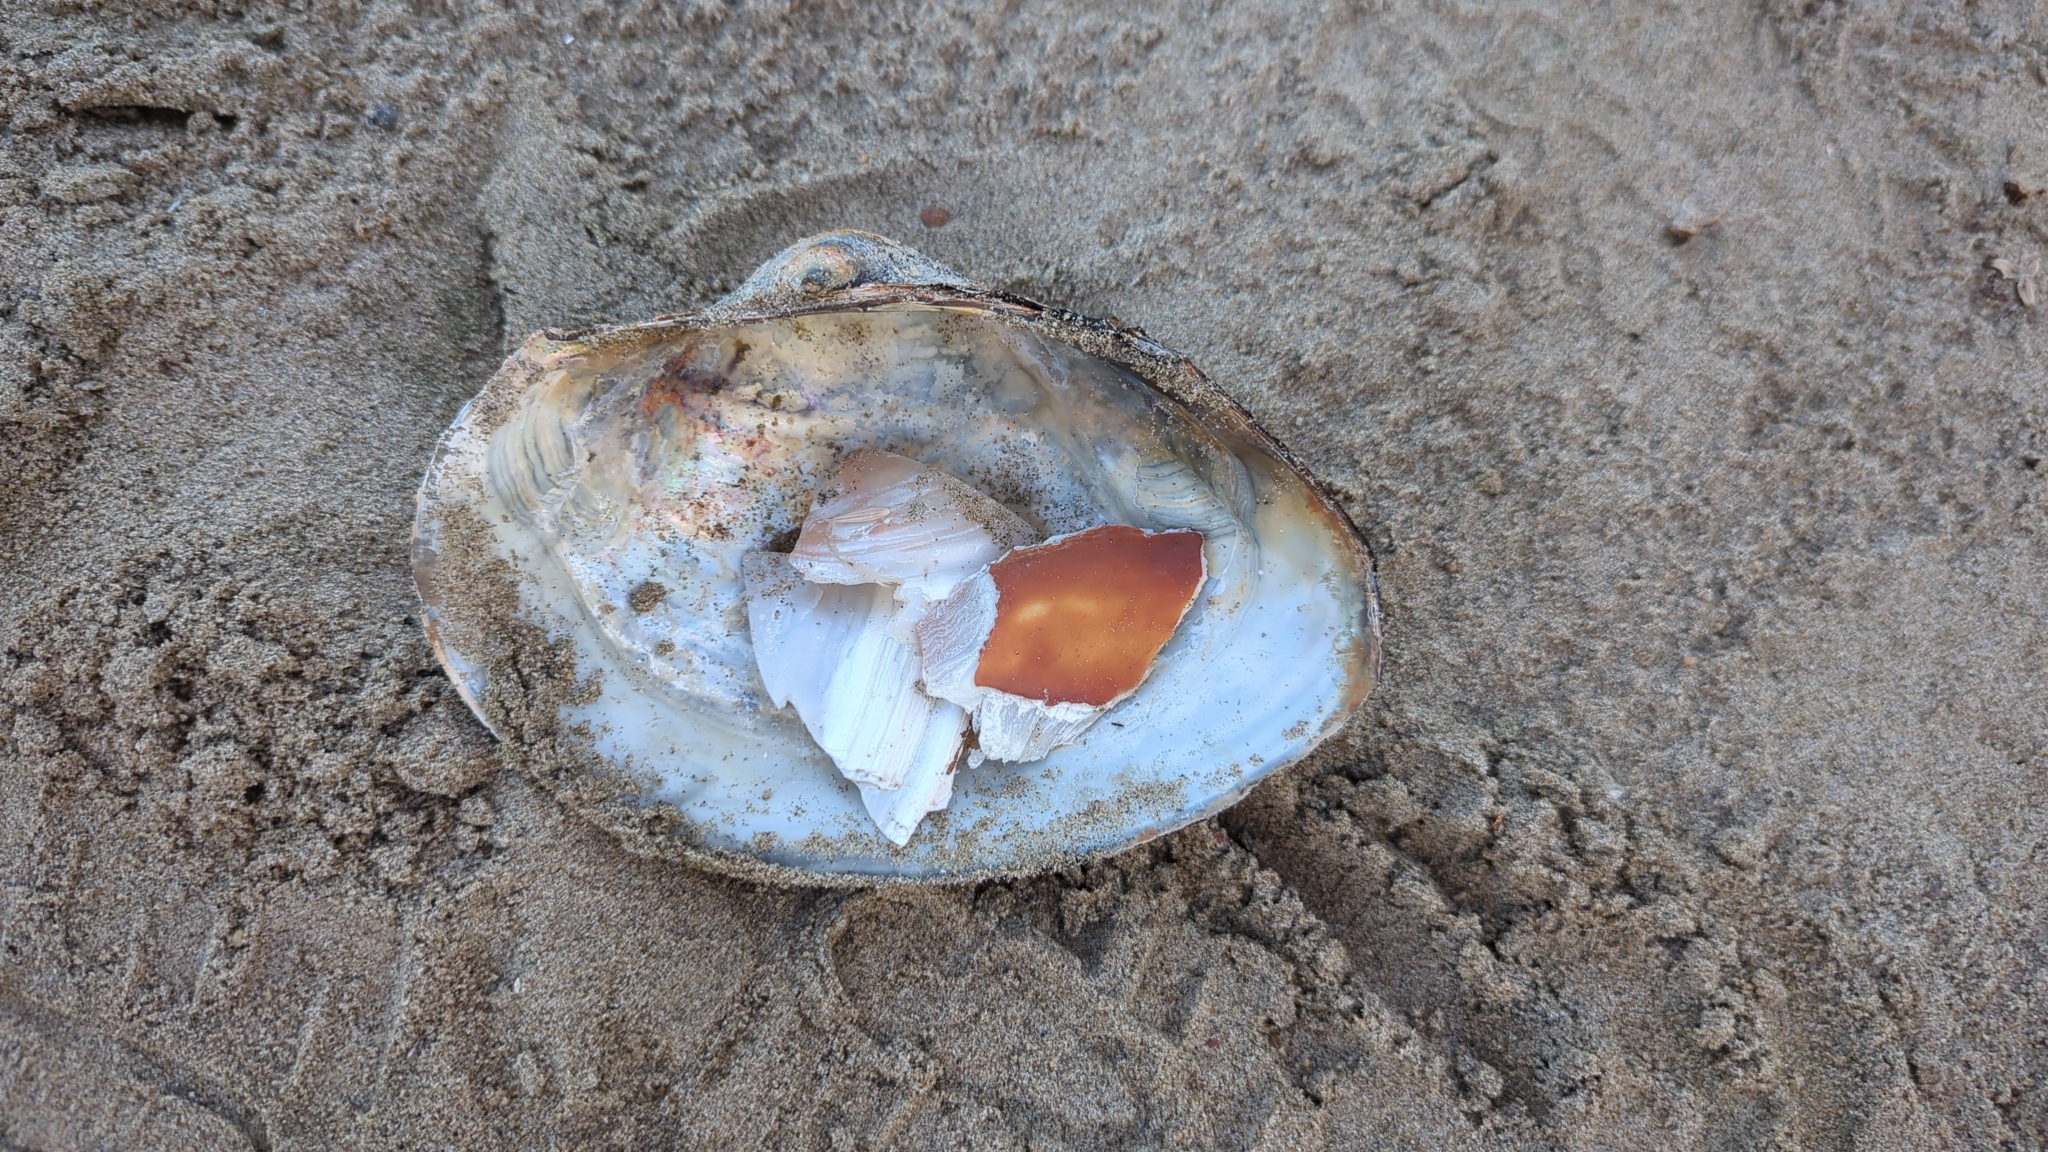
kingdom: Animalia
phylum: Mollusca
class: Bivalvia
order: Unionida
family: Unionidae
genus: Pyganodon
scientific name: Pyganodon grandis
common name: Giant floater
